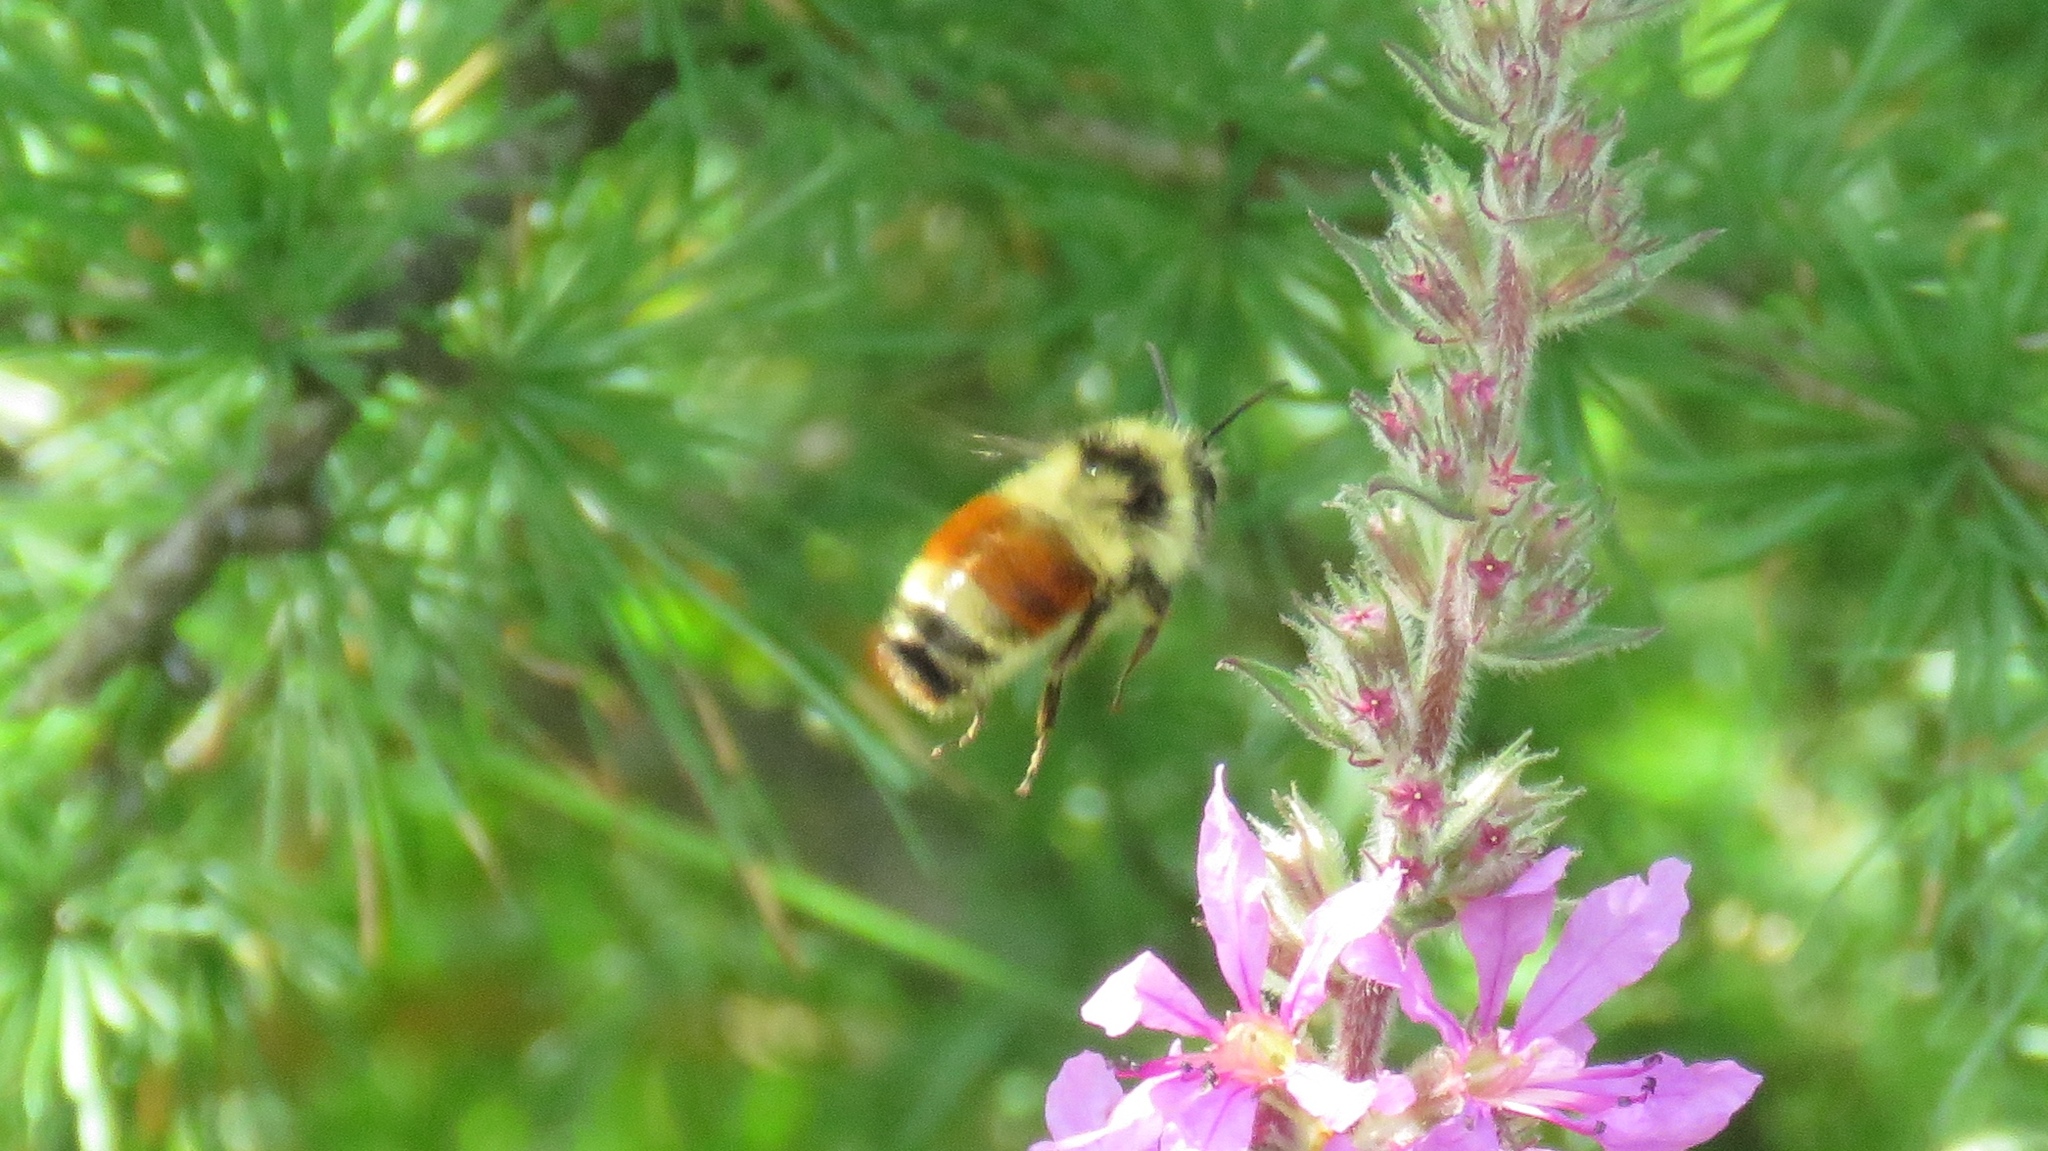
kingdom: Animalia
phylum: Arthropoda
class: Insecta
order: Hymenoptera
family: Apidae
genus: Bombus
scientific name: Bombus ternarius
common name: Tri-colored bumble bee
